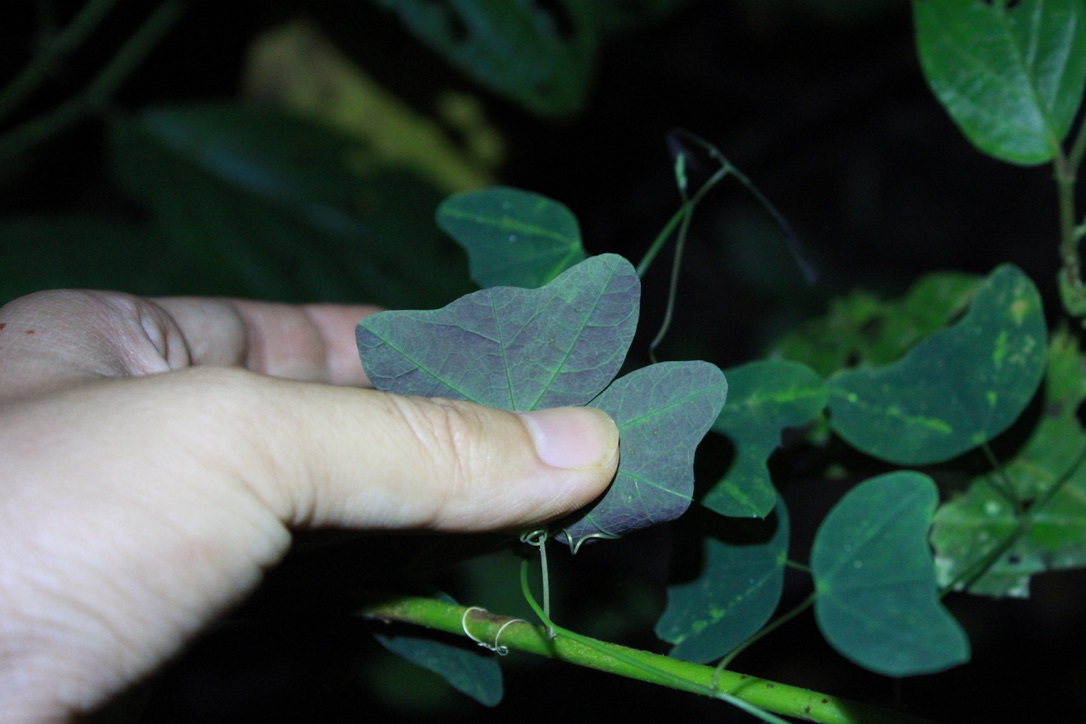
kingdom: Plantae
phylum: Tracheophyta
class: Magnoliopsida
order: Malpighiales
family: Passifloraceae
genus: Passiflora
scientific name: Passiflora tuberosa
